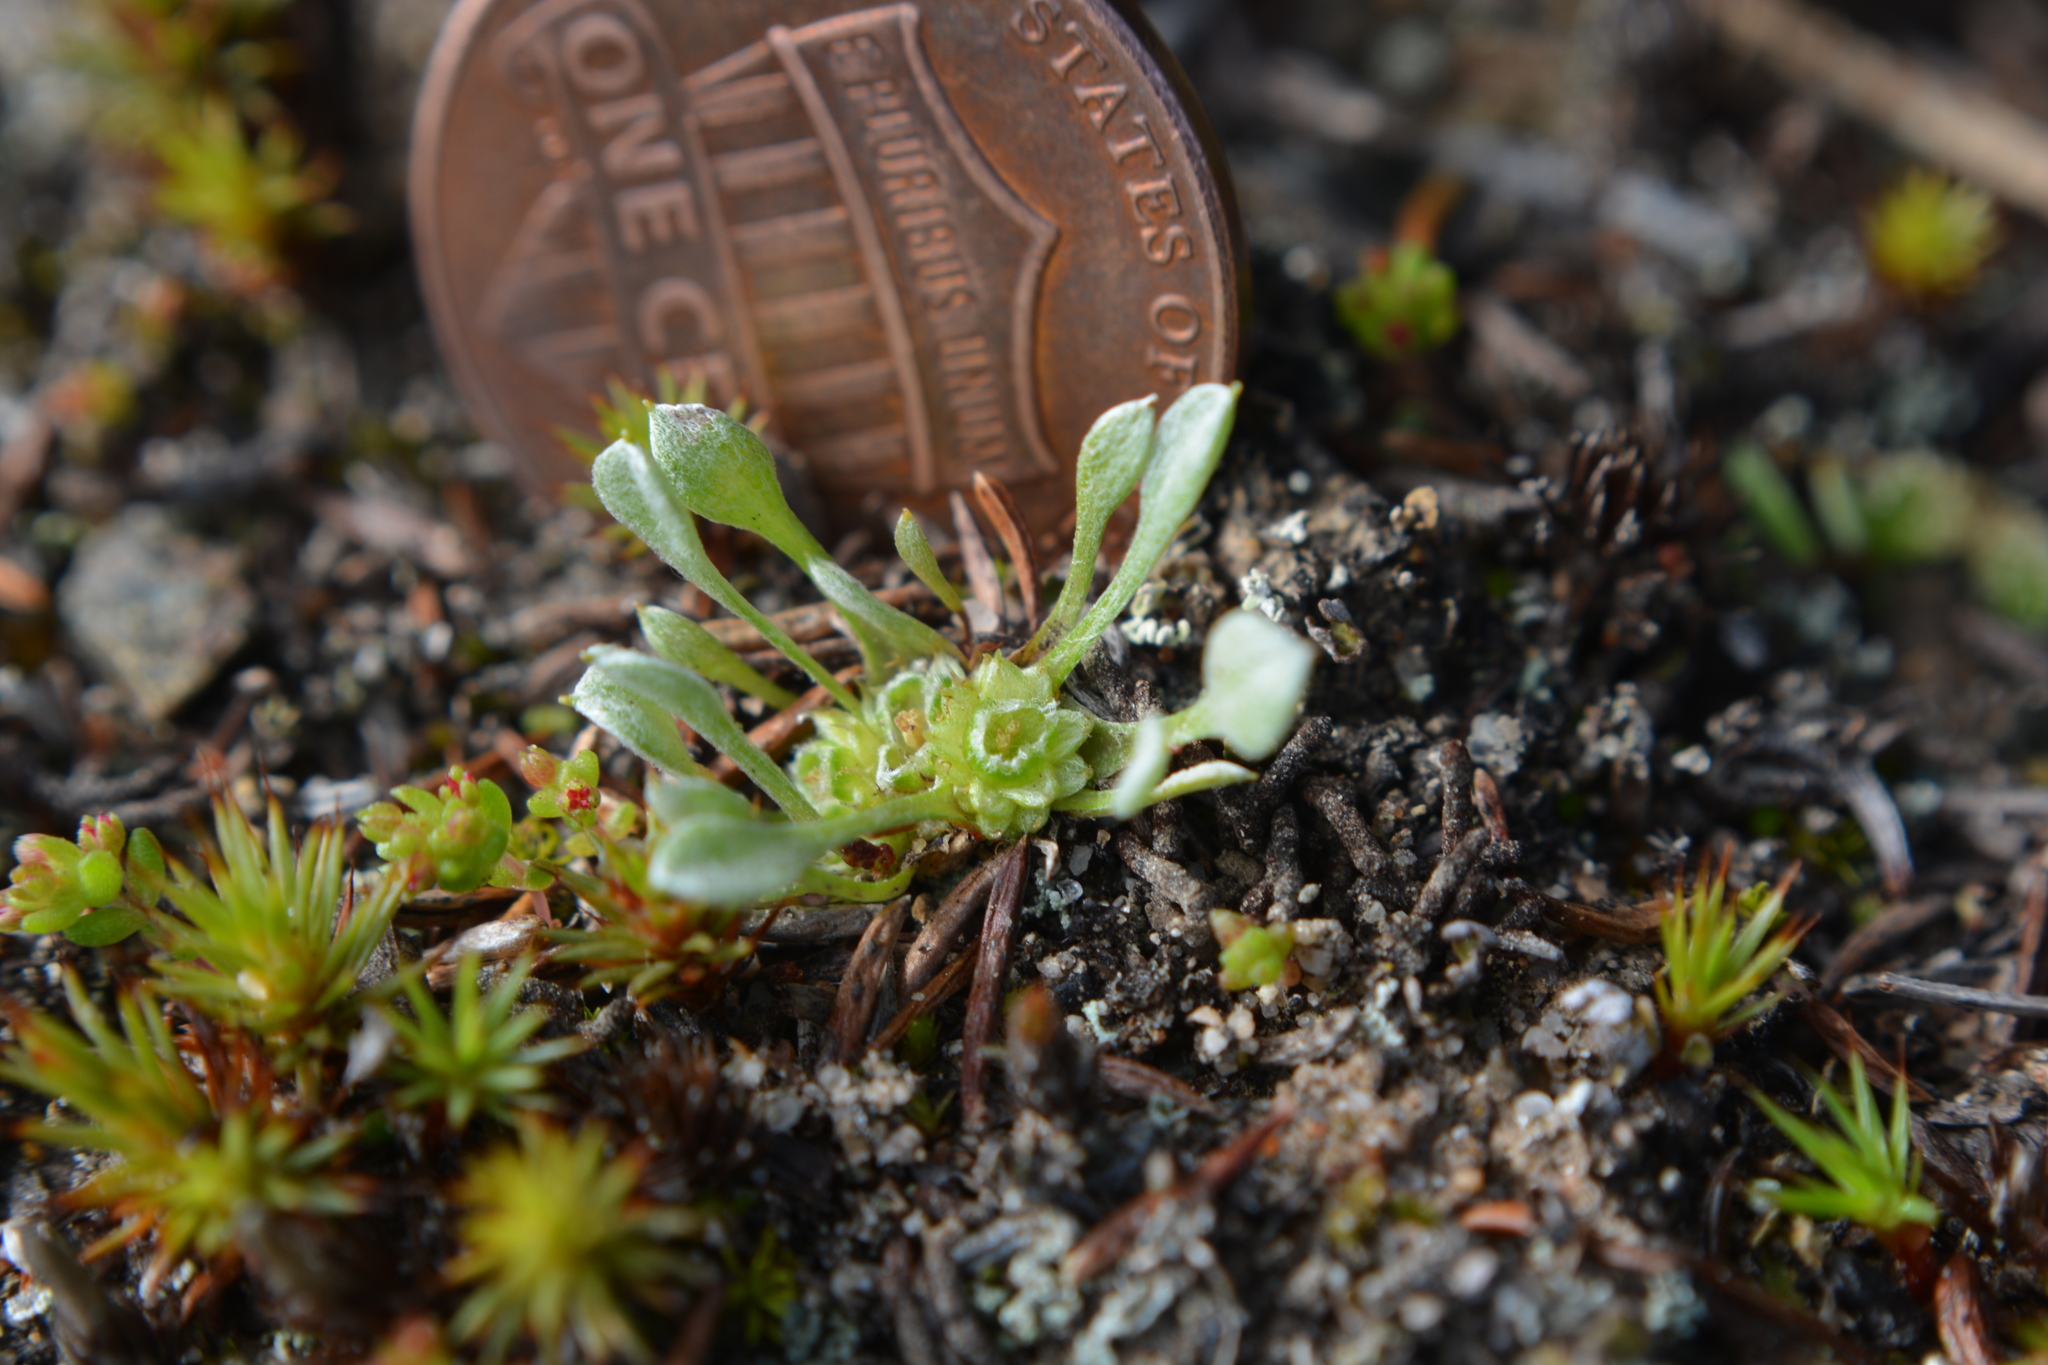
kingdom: Plantae
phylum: Tracheophyta
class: Magnoliopsida
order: Asterales
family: Asteraceae
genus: Ancistrocarphus
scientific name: Ancistrocarphus keilii
